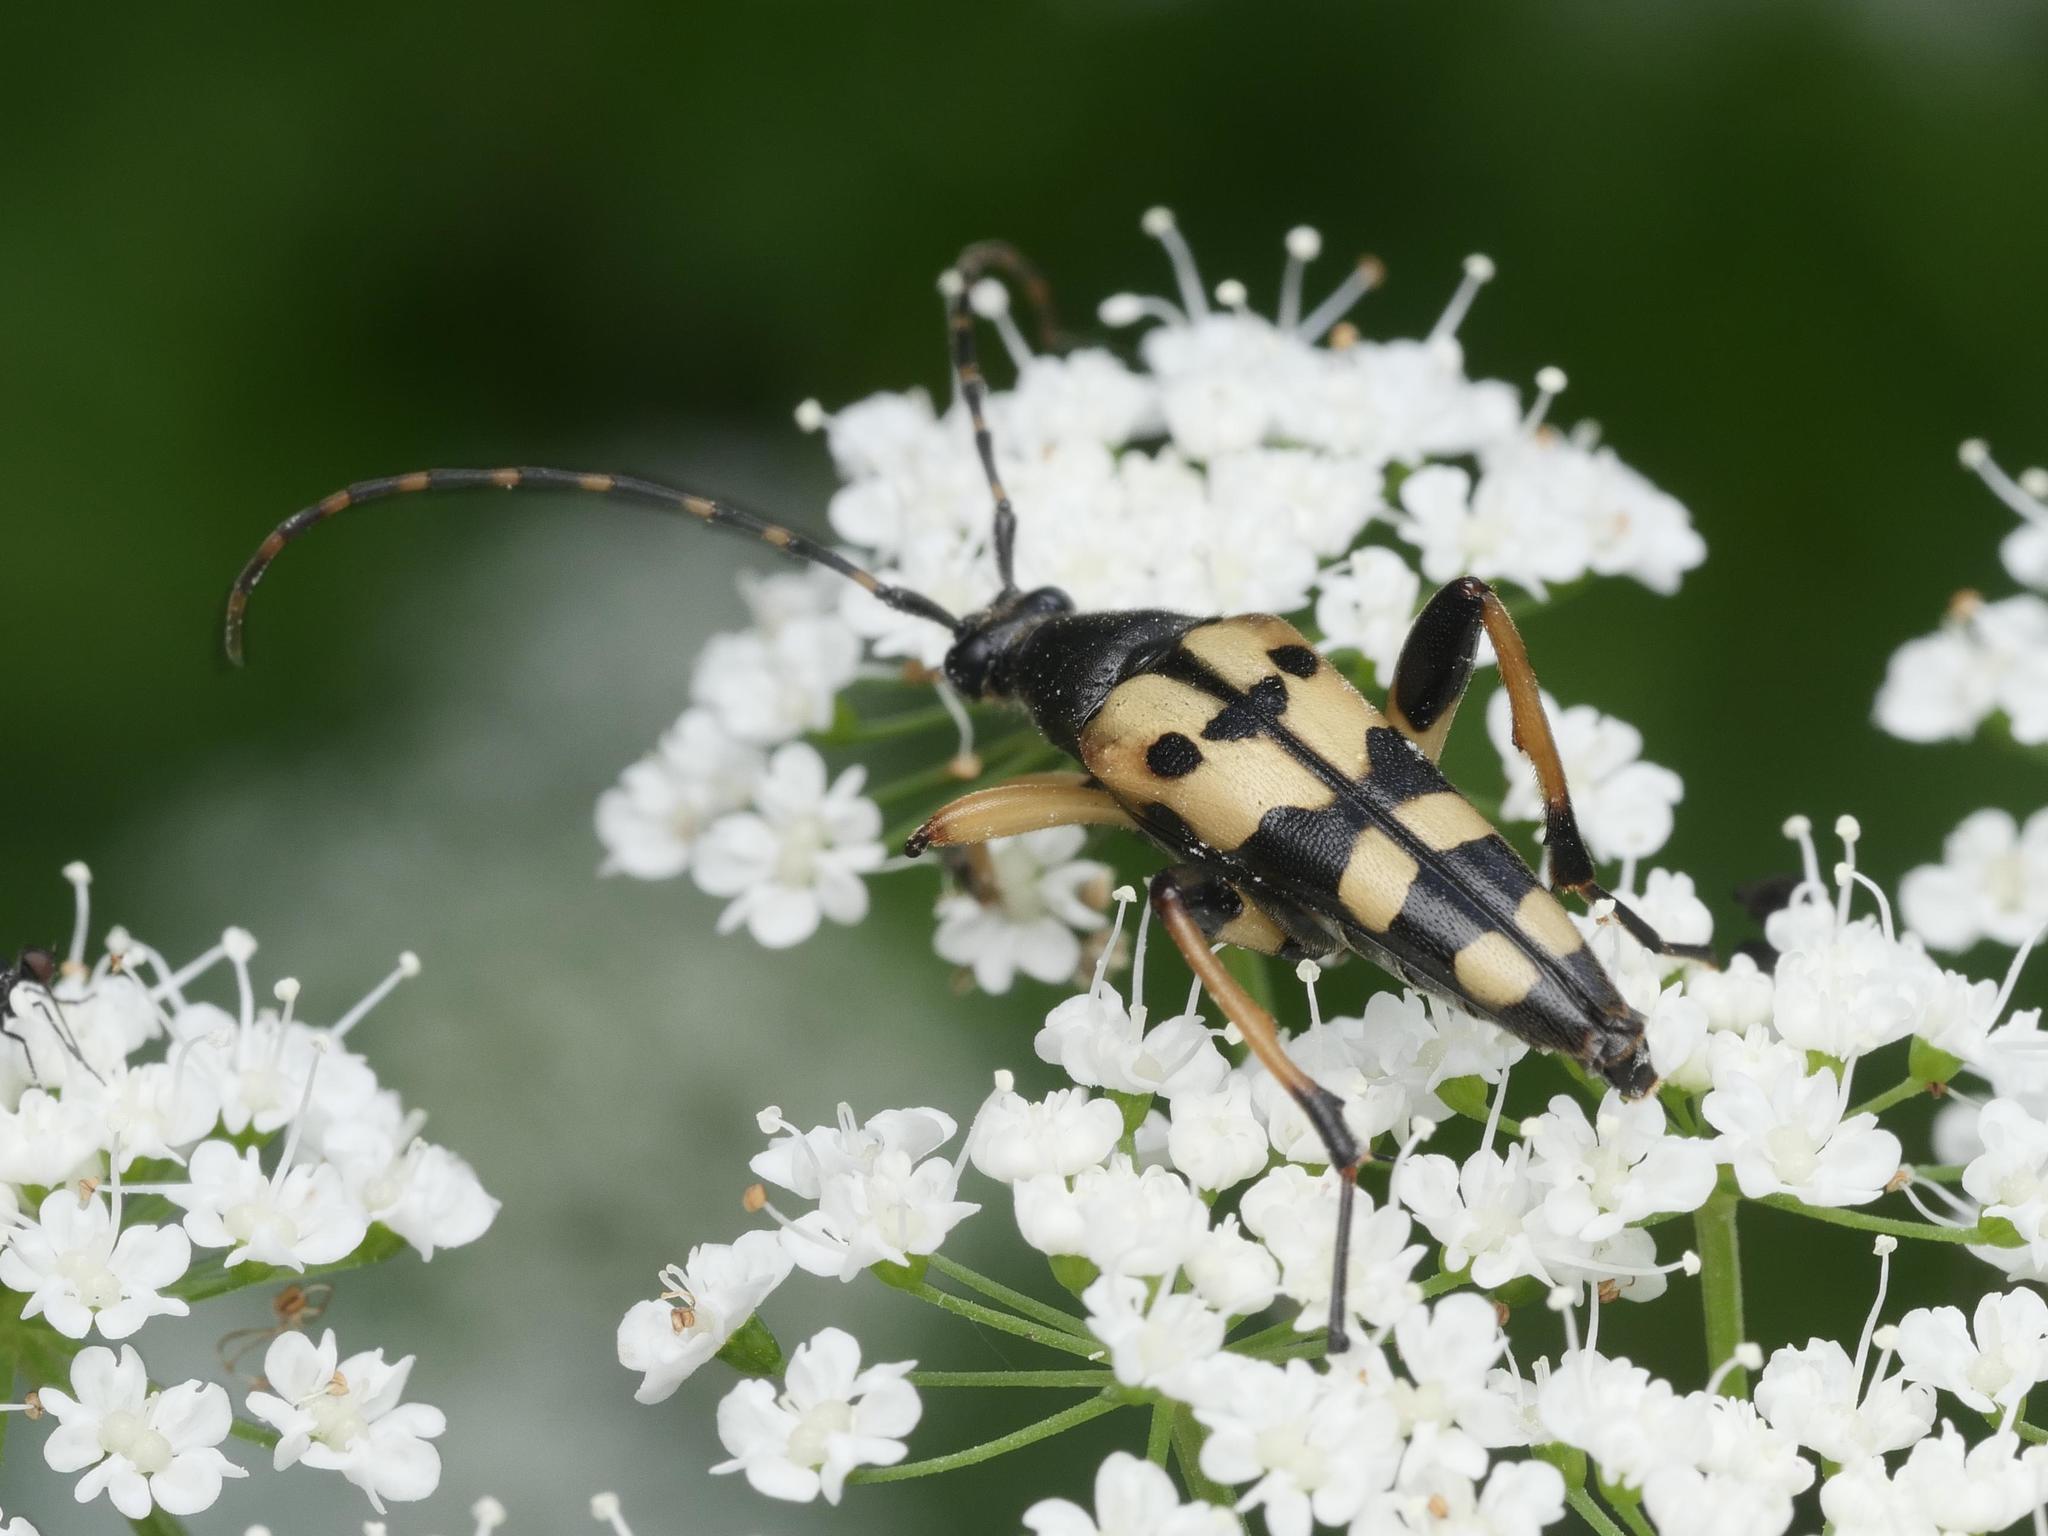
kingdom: Animalia
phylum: Arthropoda
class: Insecta
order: Coleoptera
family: Cerambycidae
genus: Rutpela
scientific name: Rutpela maculata
